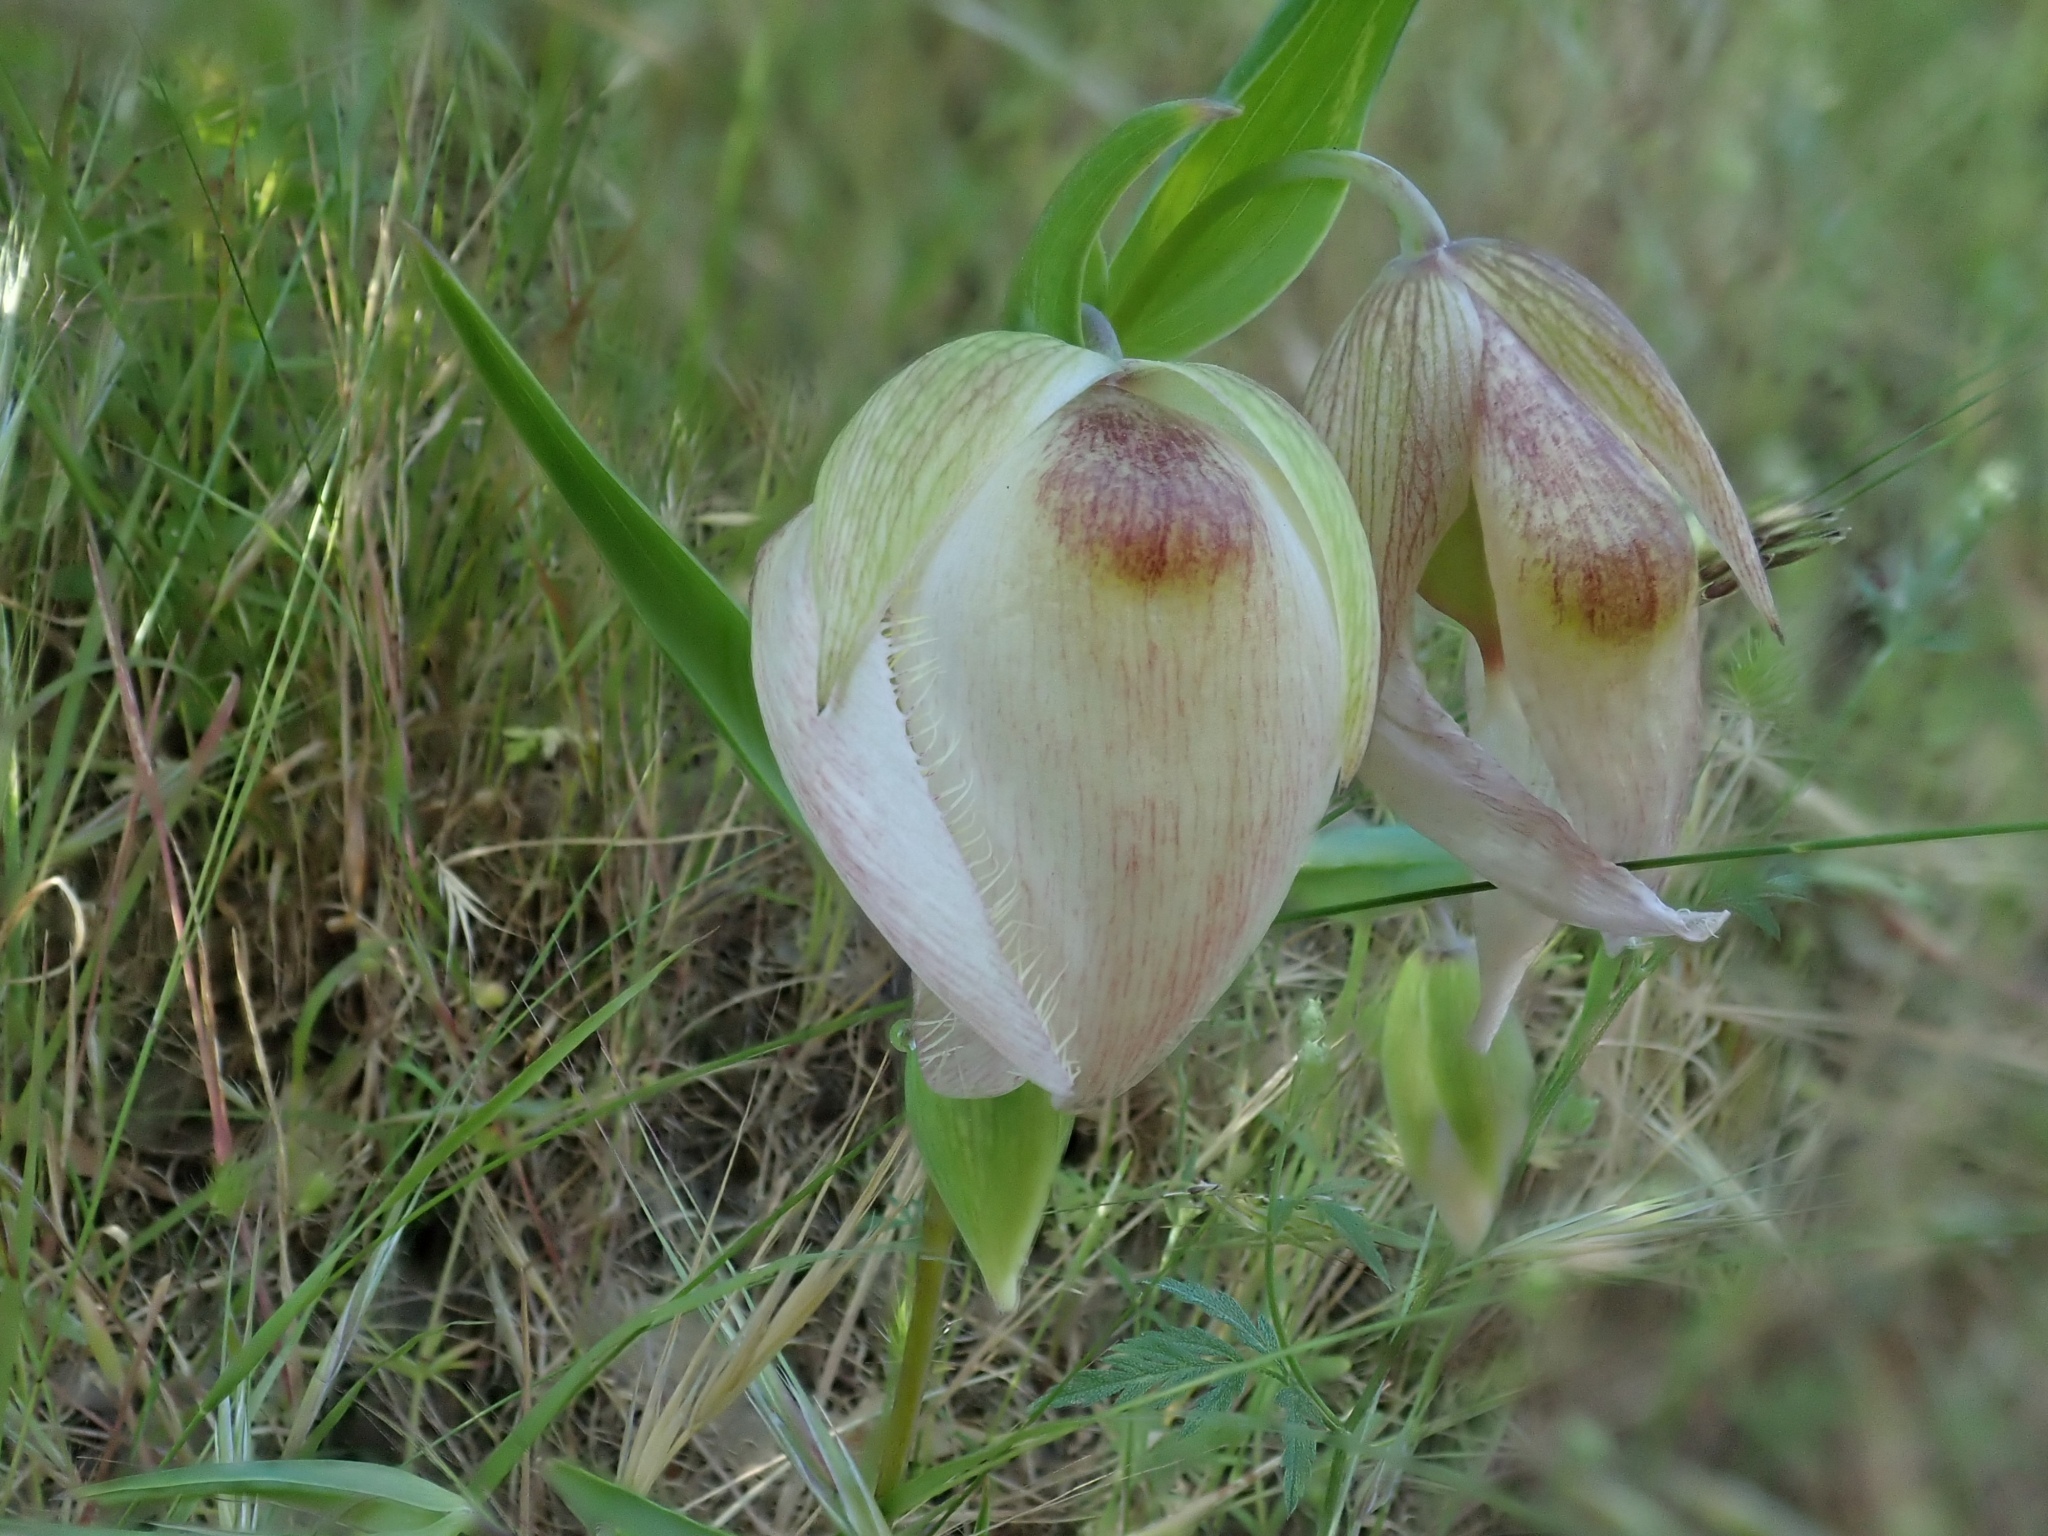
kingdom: Plantae
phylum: Tracheophyta
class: Liliopsida
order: Liliales
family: Liliaceae
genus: Calochortus
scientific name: Calochortus albus
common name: Fairy-lantern
